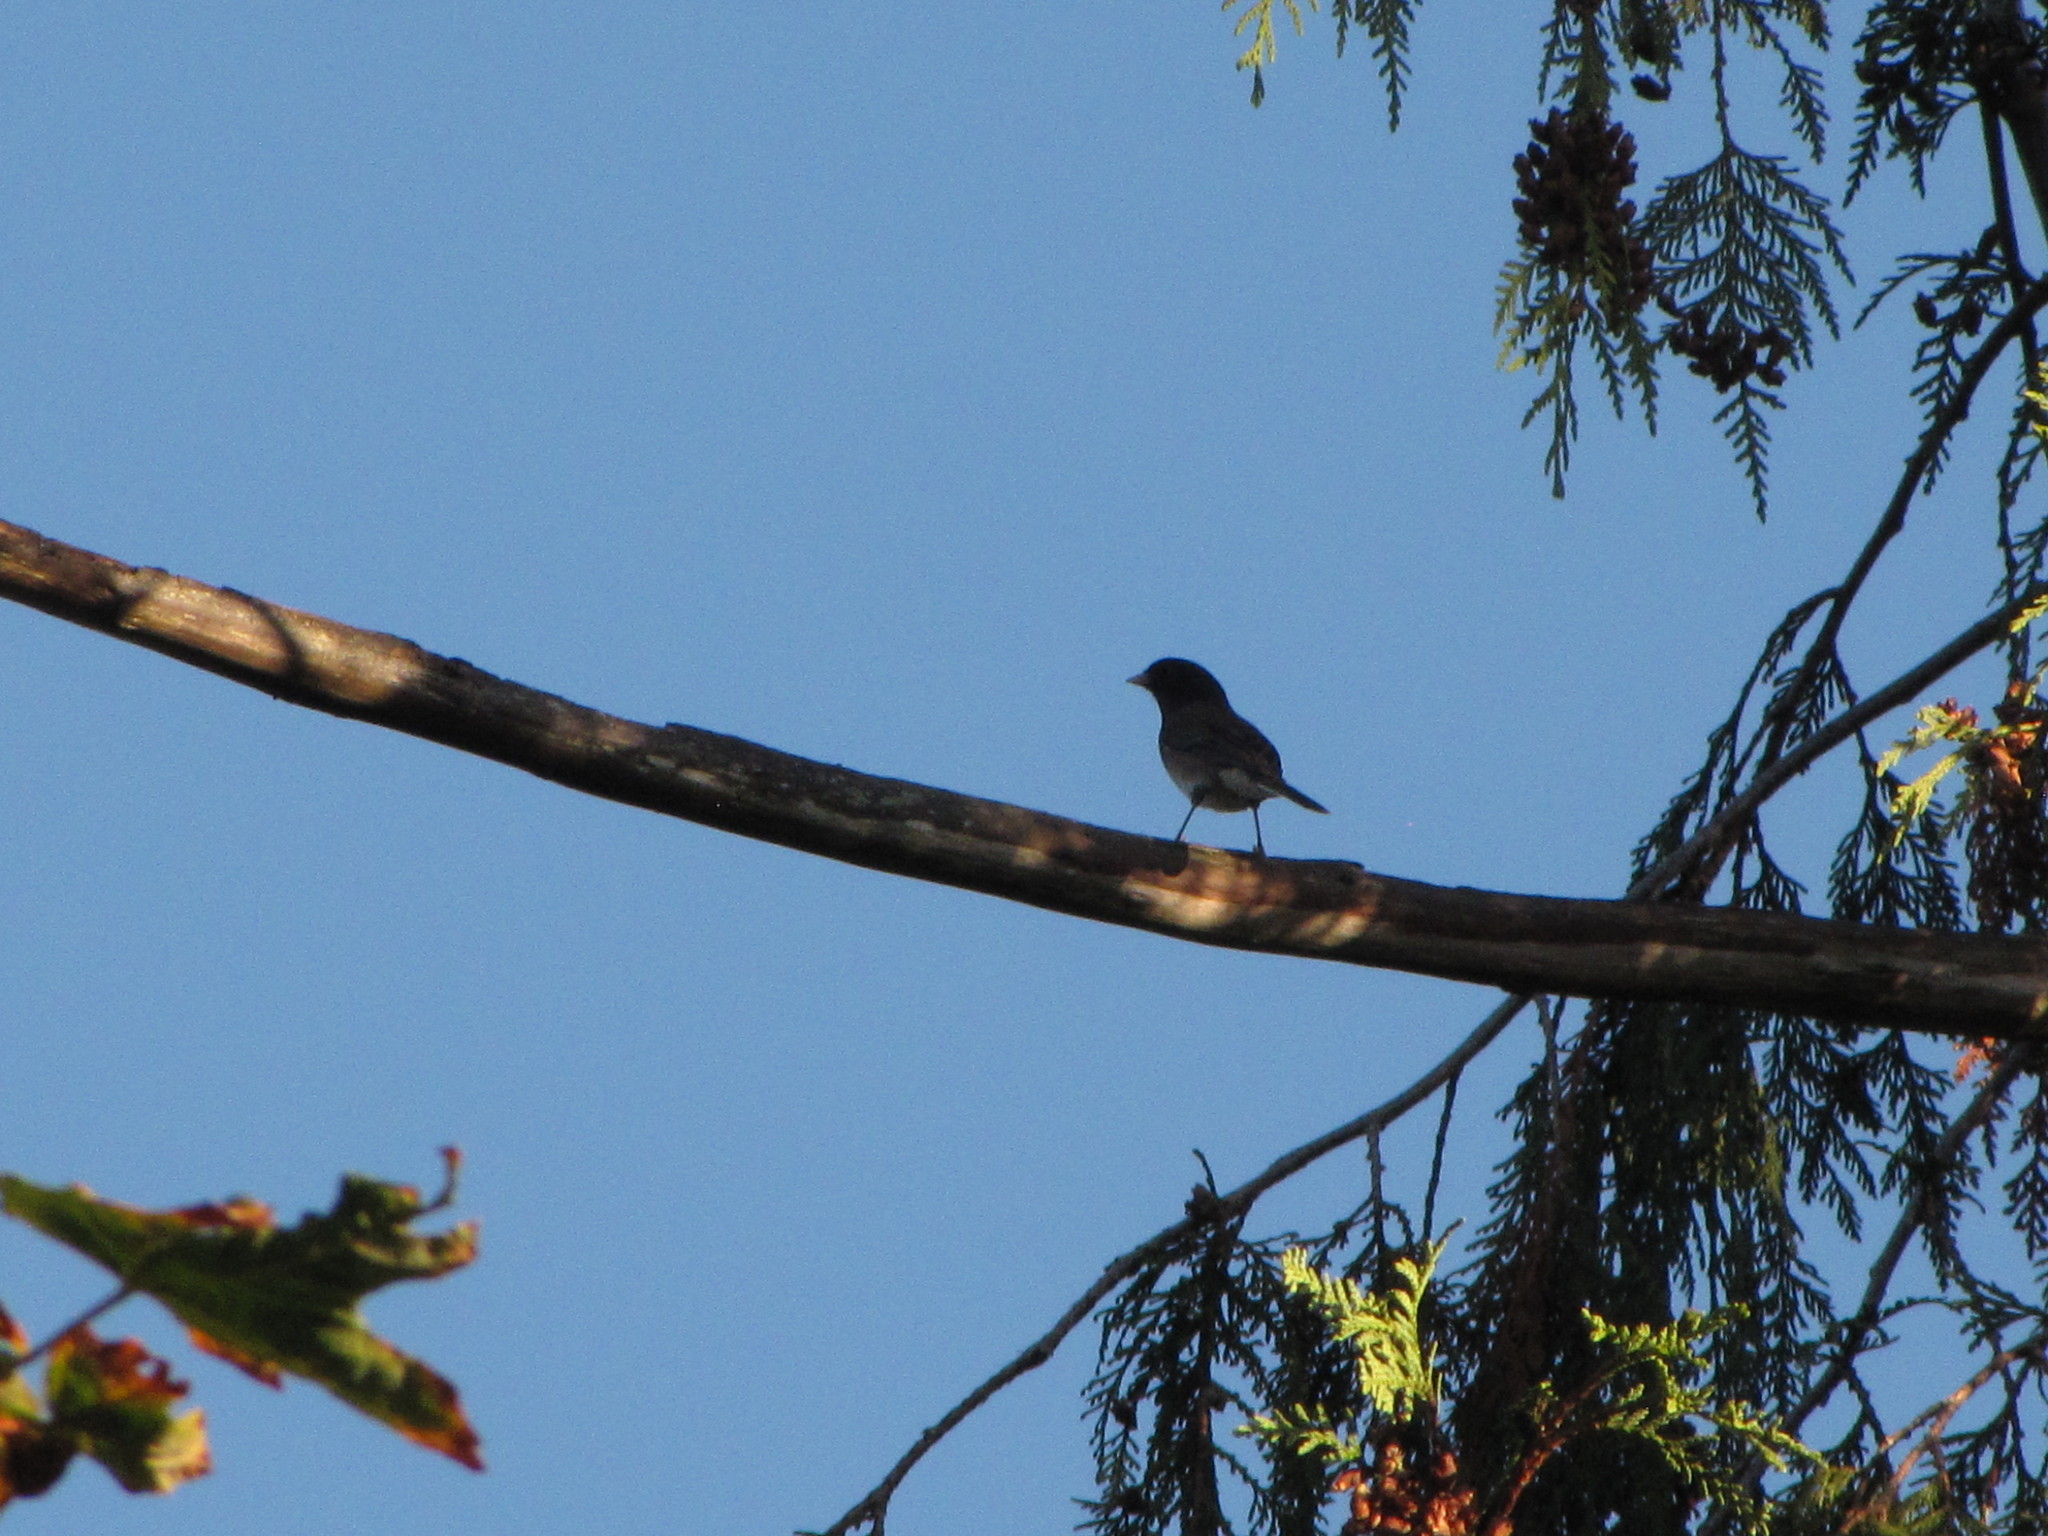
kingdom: Animalia
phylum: Chordata
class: Aves
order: Passeriformes
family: Passerellidae
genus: Junco
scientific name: Junco hyemalis
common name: Dark-eyed junco
